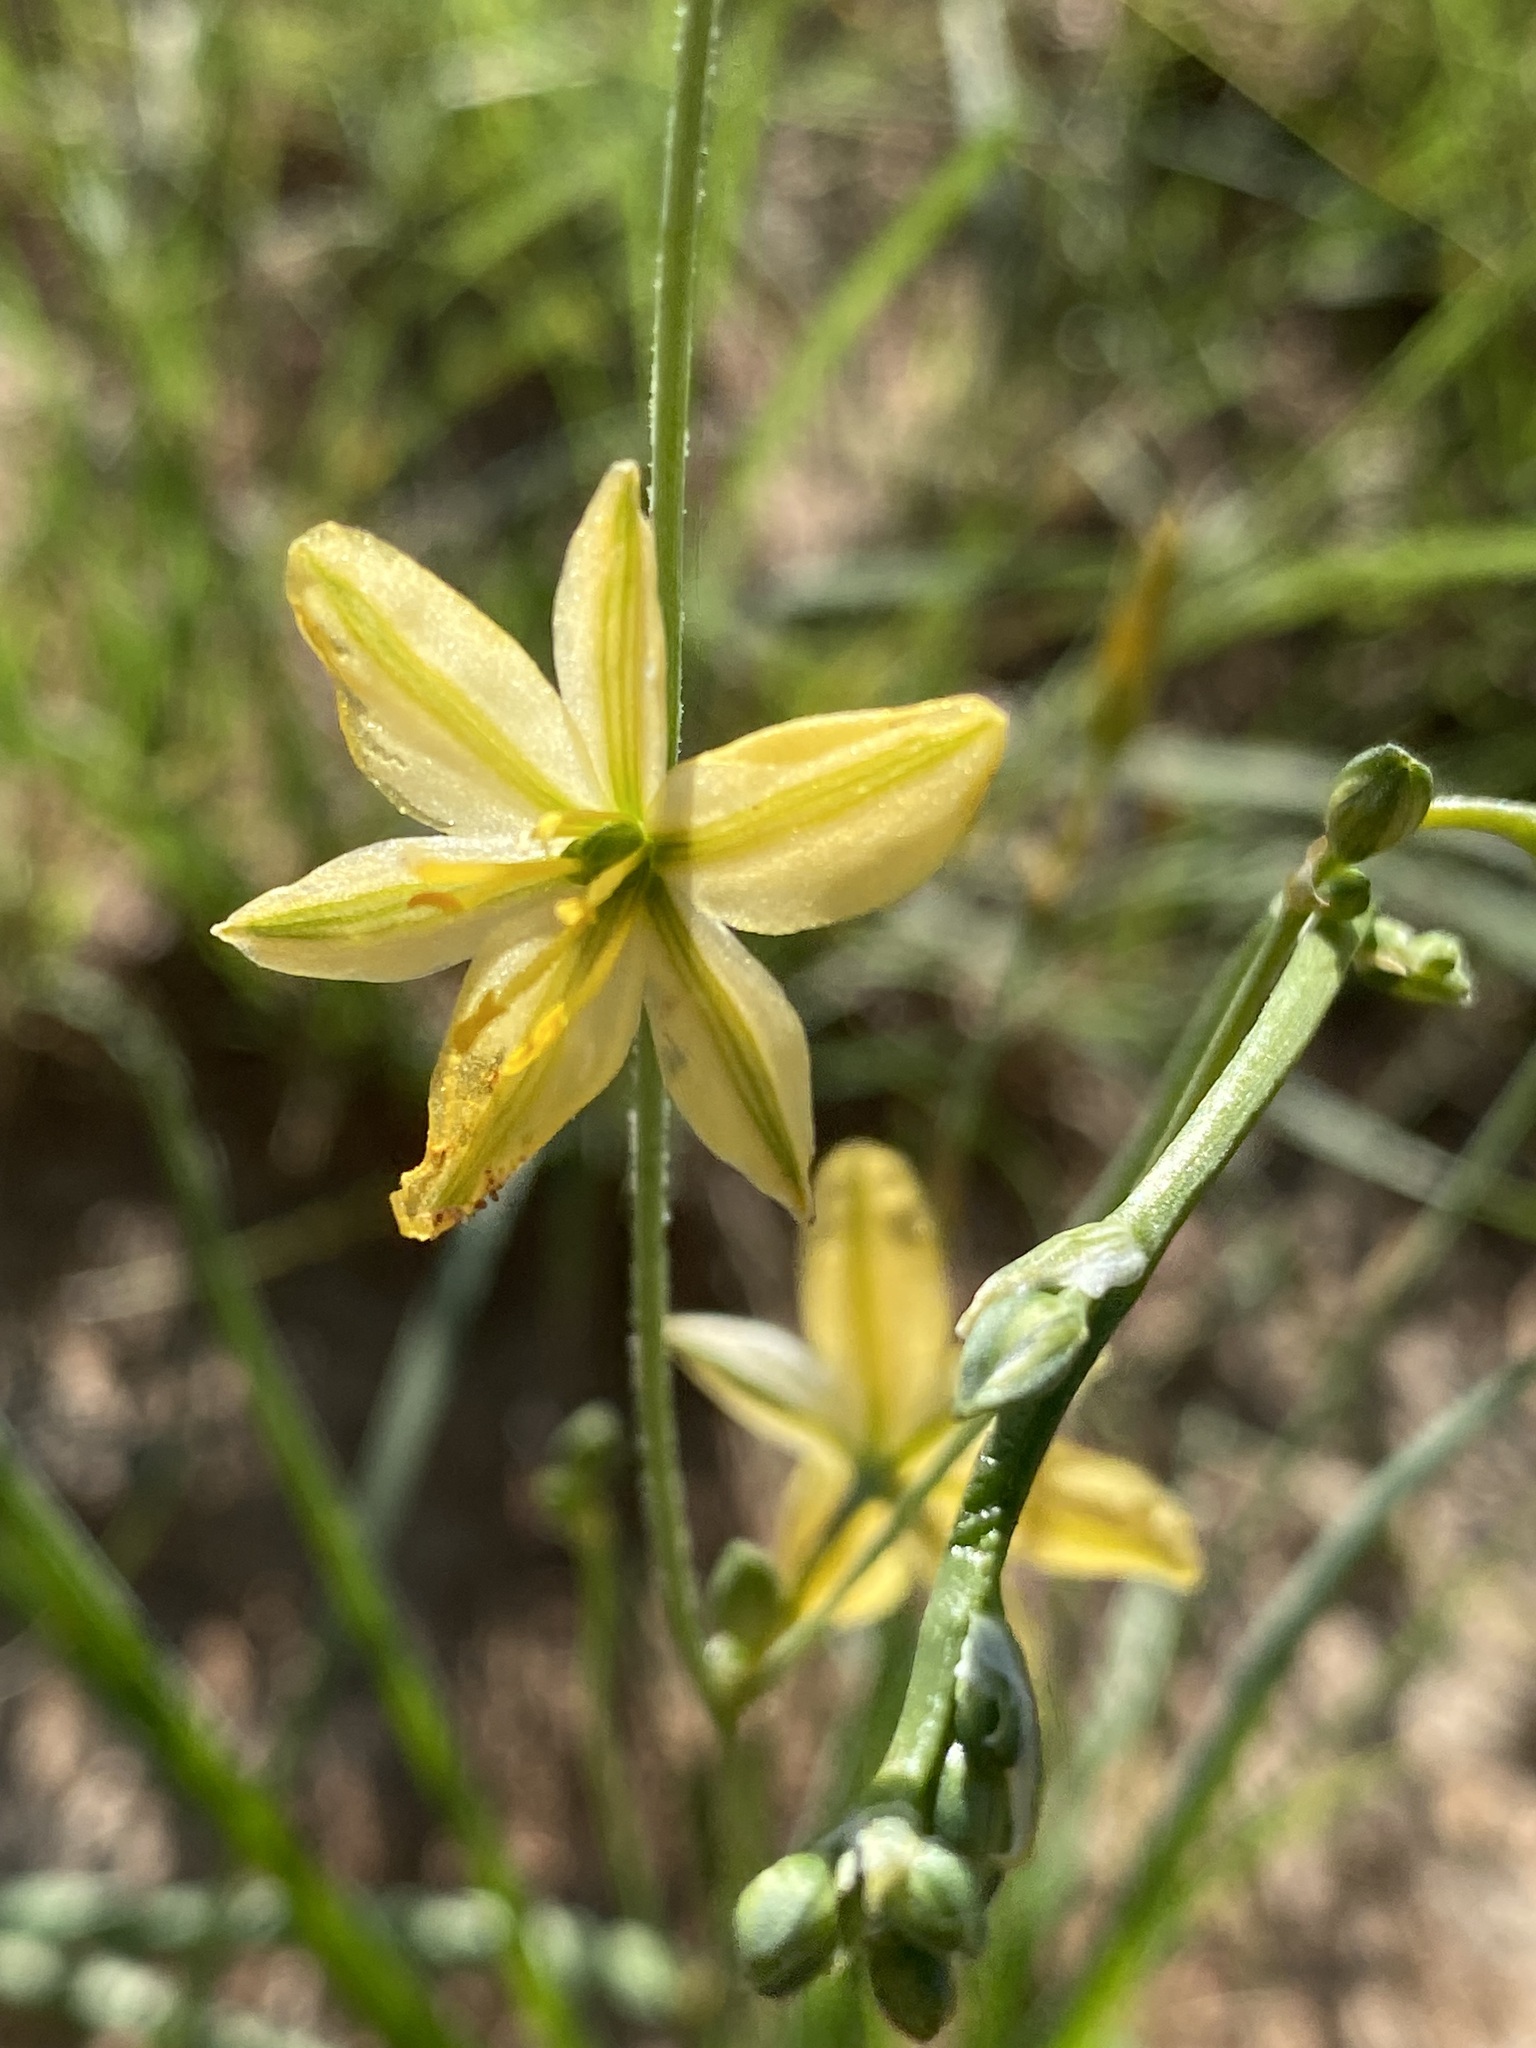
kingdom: Plantae
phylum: Tracheophyta
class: Liliopsida
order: Asparagales
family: Asparagaceae
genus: Echeandia
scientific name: Echeandia flavescens
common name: Amberlily
